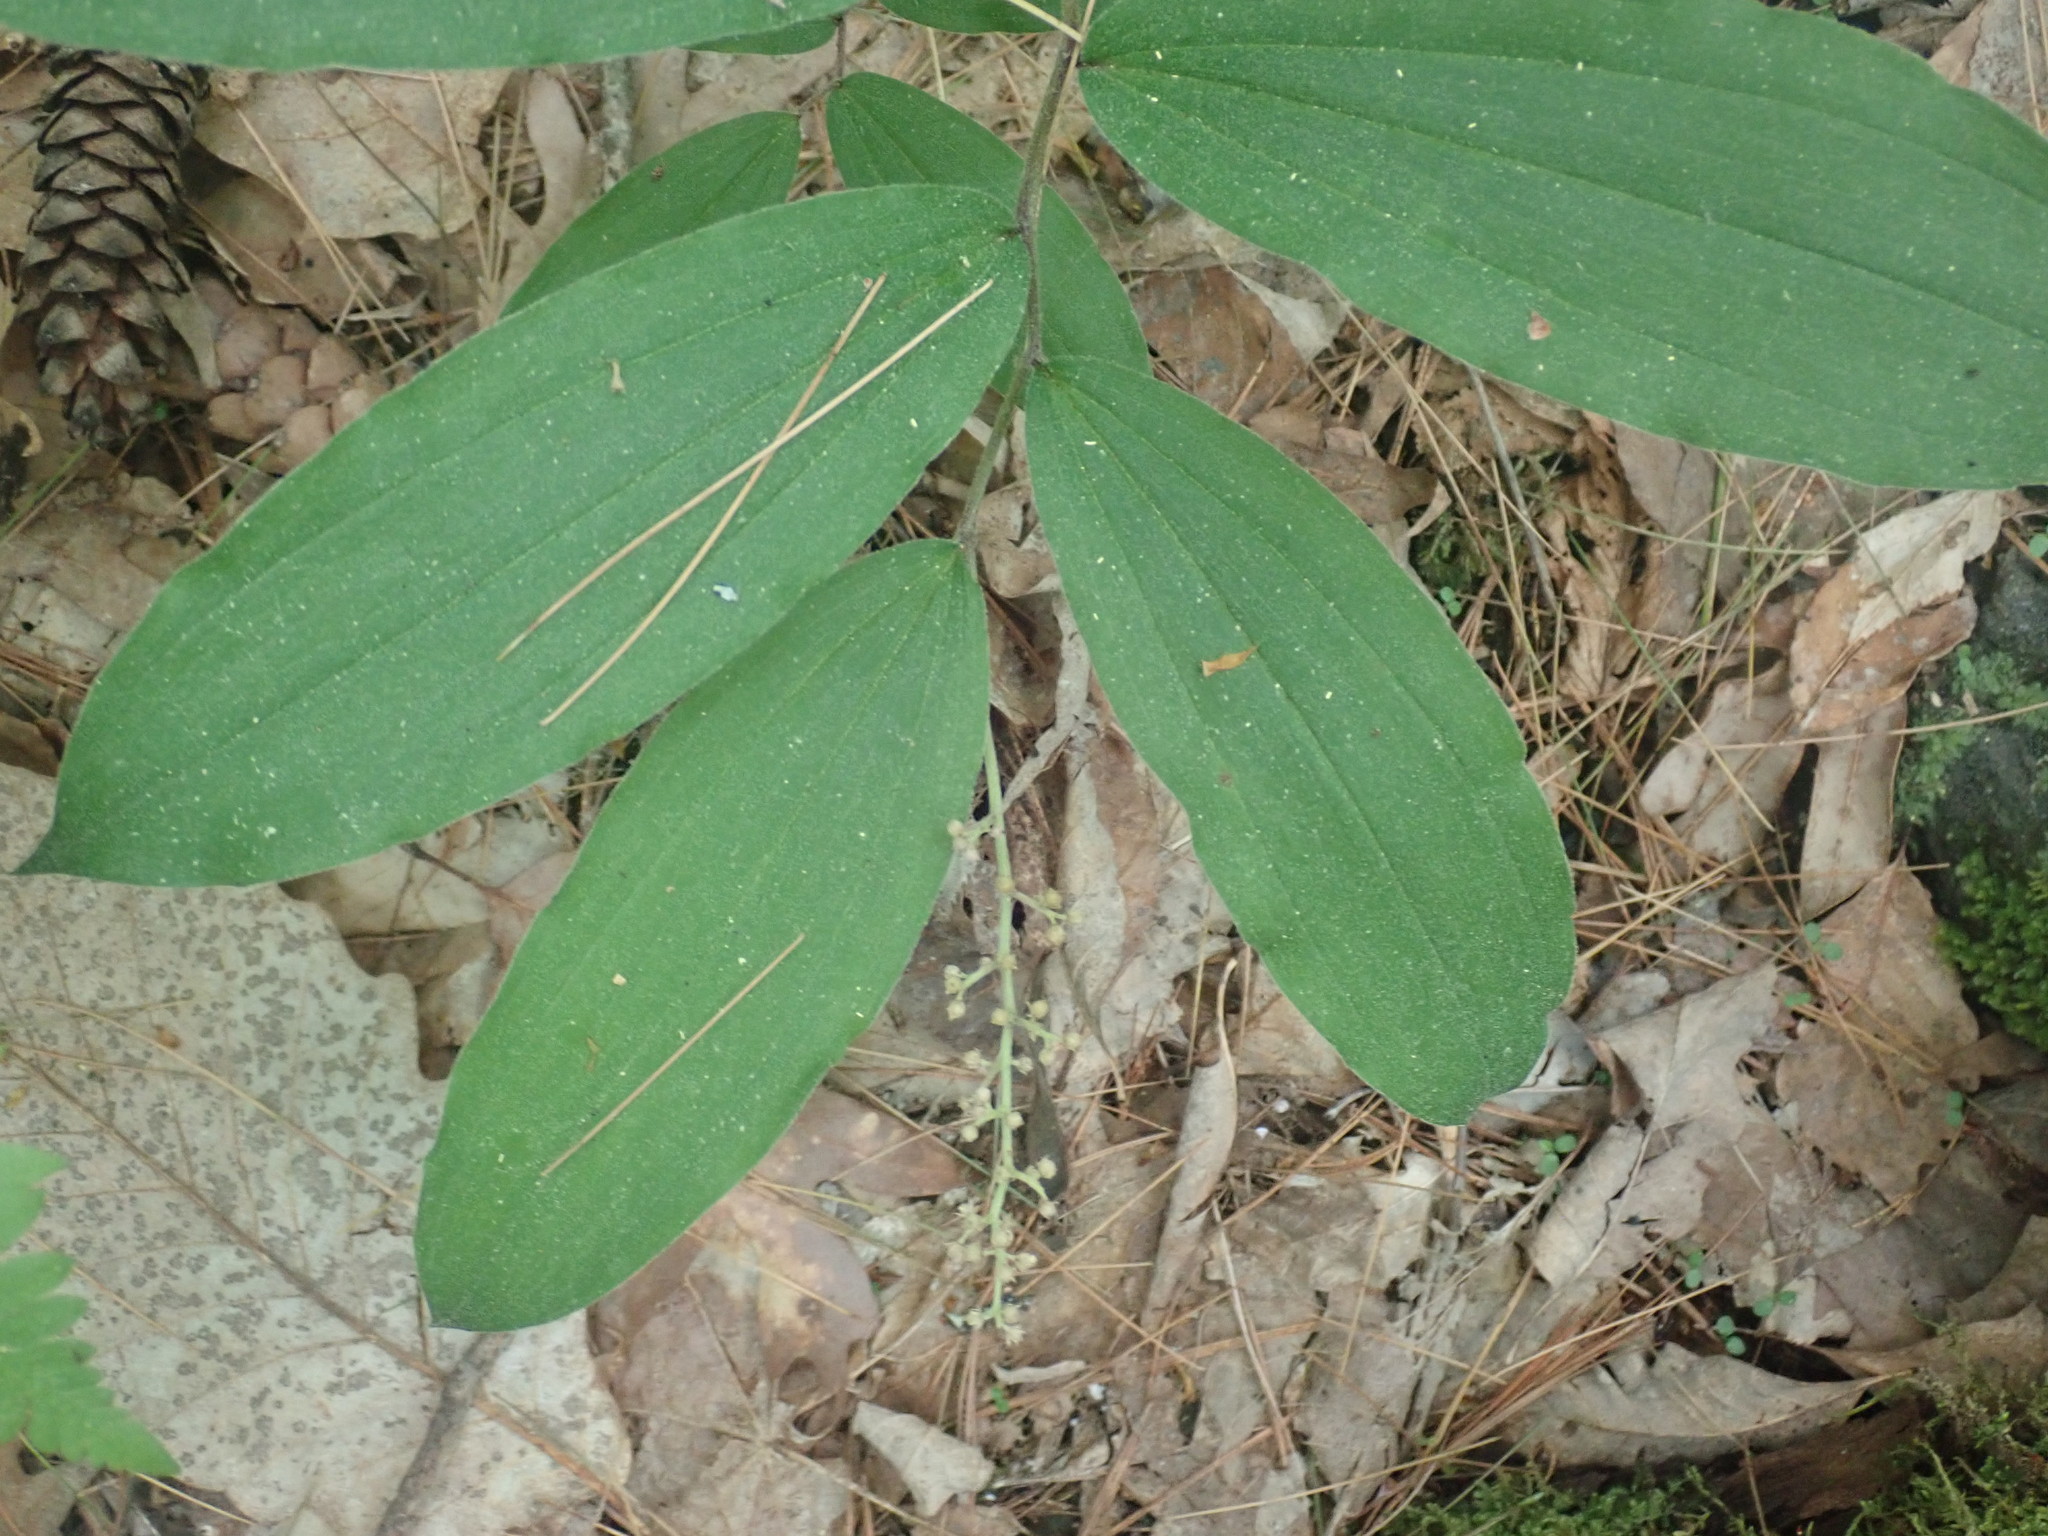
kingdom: Plantae
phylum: Tracheophyta
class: Liliopsida
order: Asparagales
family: Asparagaceae
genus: Maianthemum
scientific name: Maianthemum racemosum
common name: False spikenard
